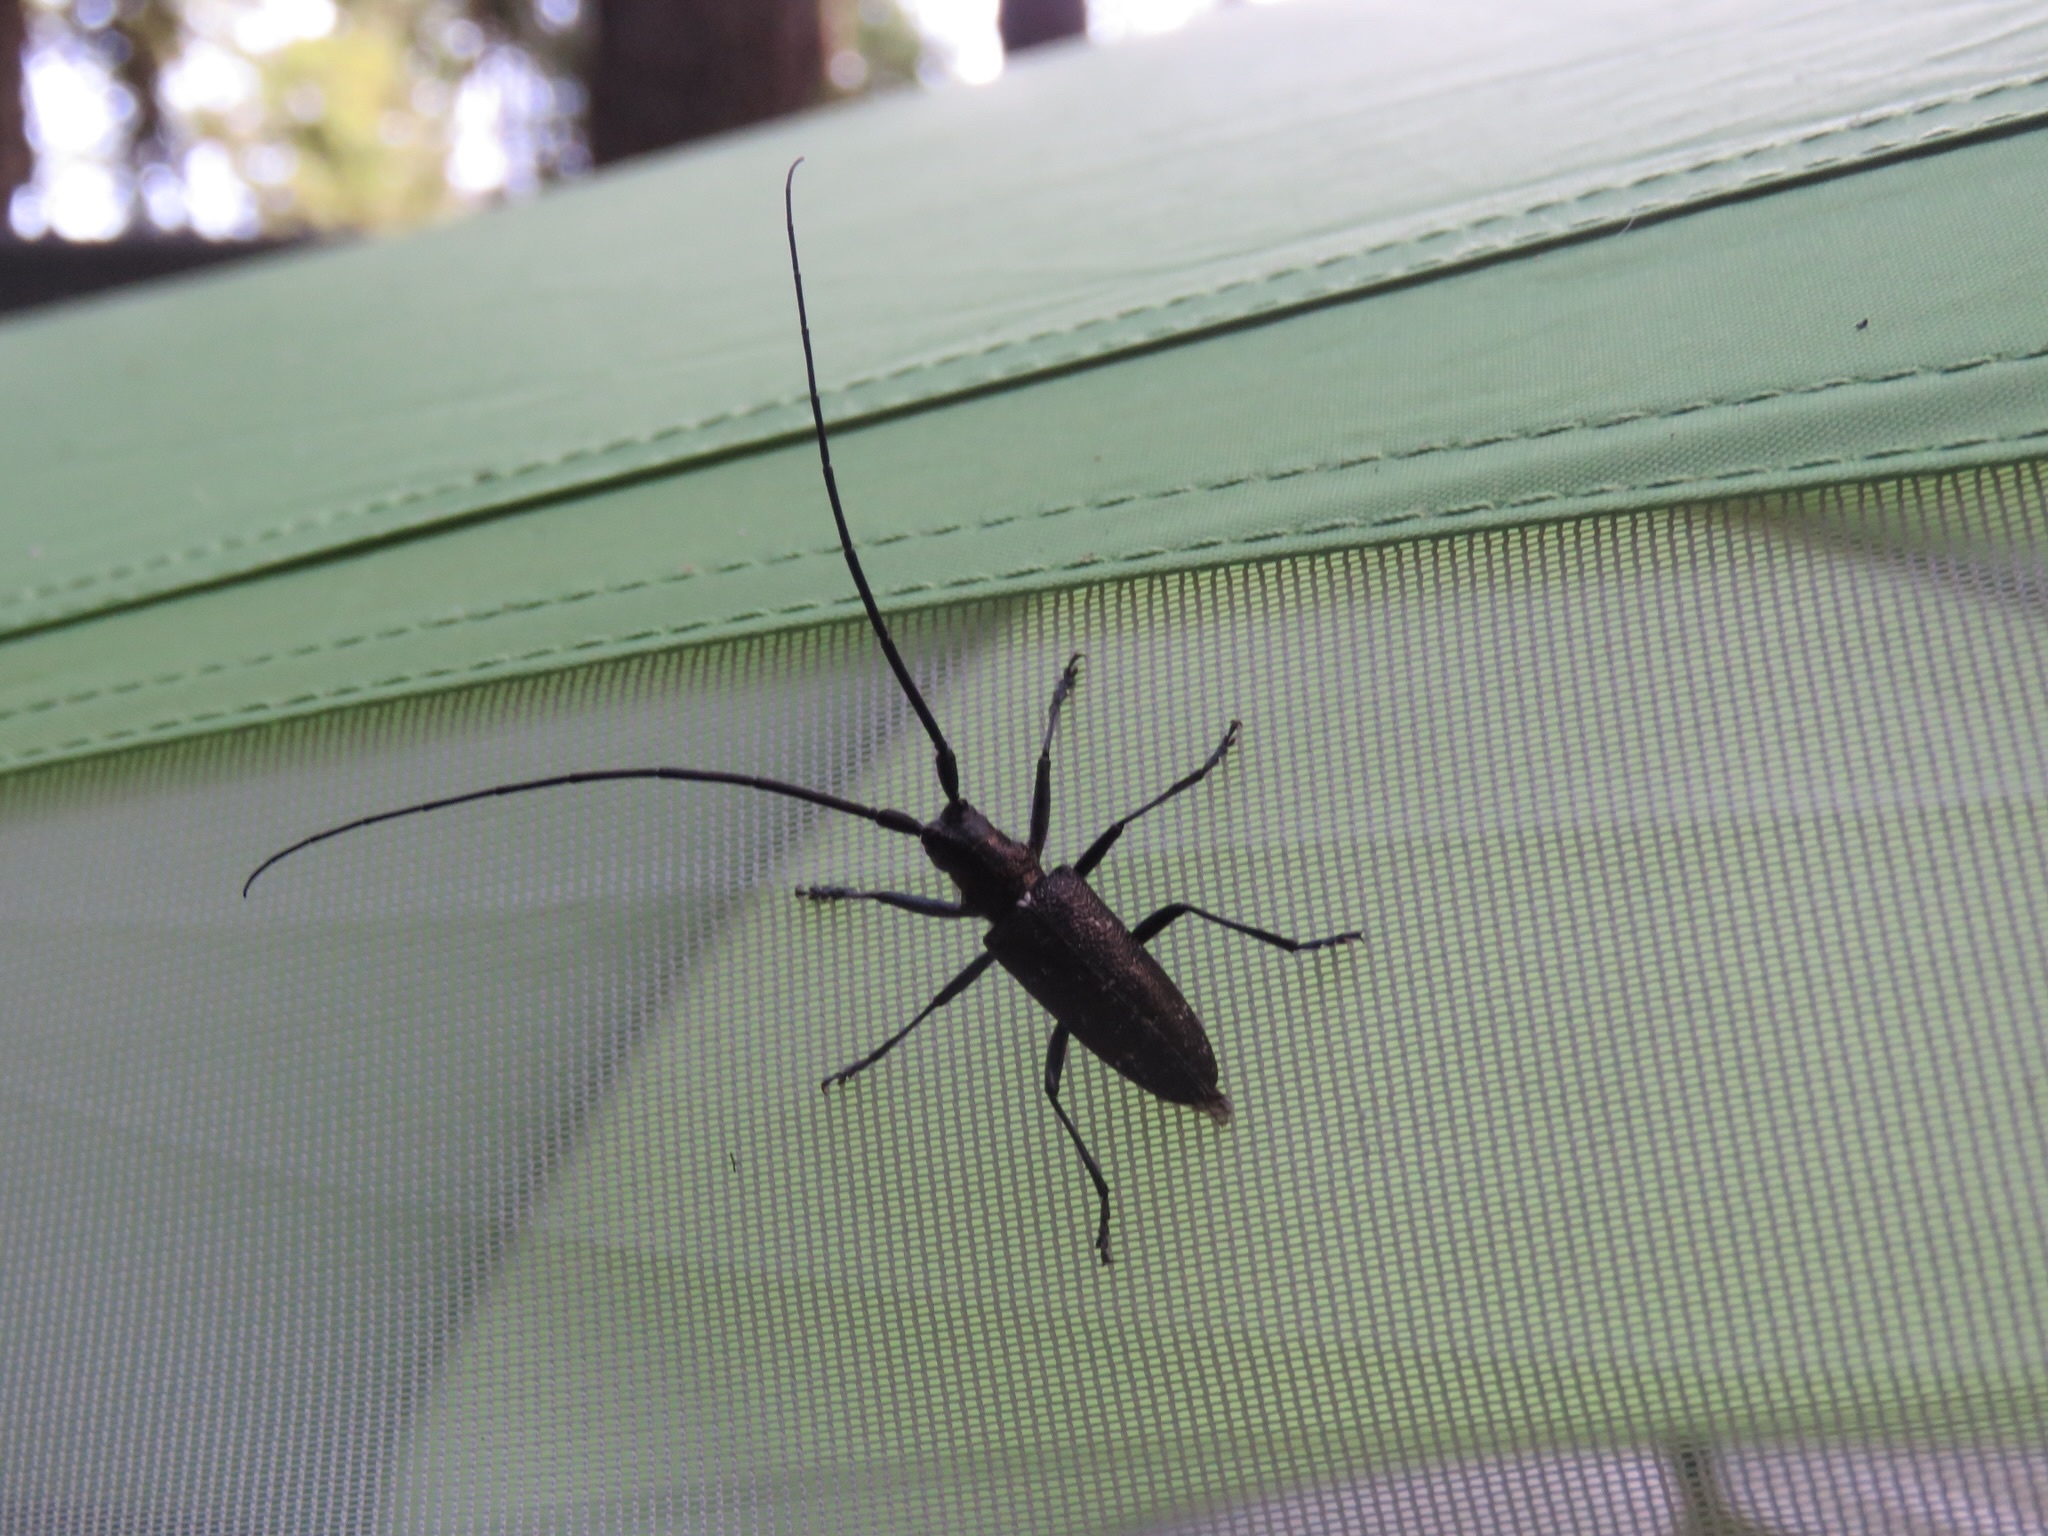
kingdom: Animalia
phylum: Arthropoda
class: Insecta
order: Coleoptera
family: Cerambycidae
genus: Monochamus
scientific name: Monochamus scutellatus
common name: White-spotted sawyer beetle
